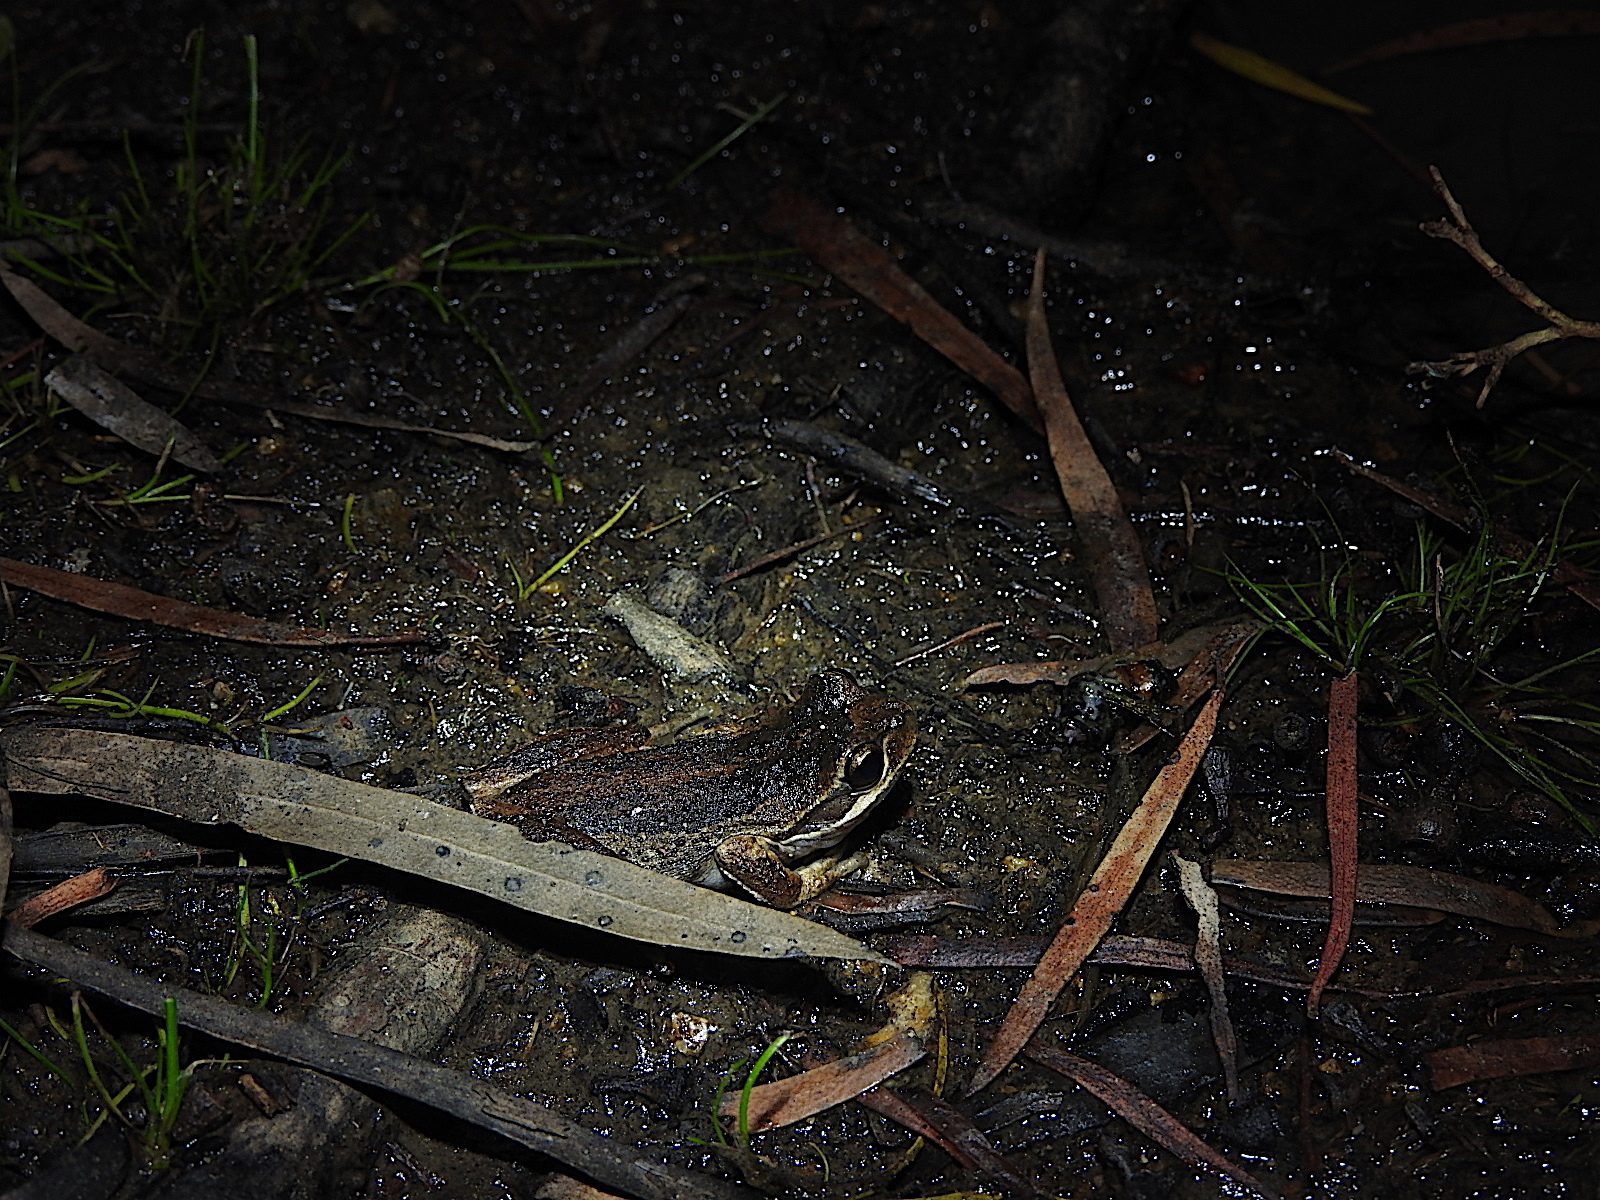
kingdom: Animalia
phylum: Chordata
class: Amphibia
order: Anura
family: Pelodryadidae
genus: Litoria
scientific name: Litoria ewingii
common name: Southern brown tree frog
